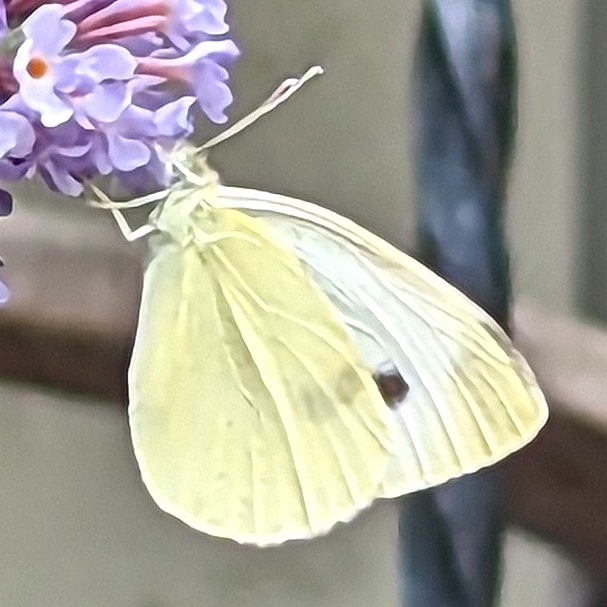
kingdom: Animalia
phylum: Arthropoda
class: Insecta
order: Lepidoptera
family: Pieridae
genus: Pieris
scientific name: Pieris rapae
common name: Small white
